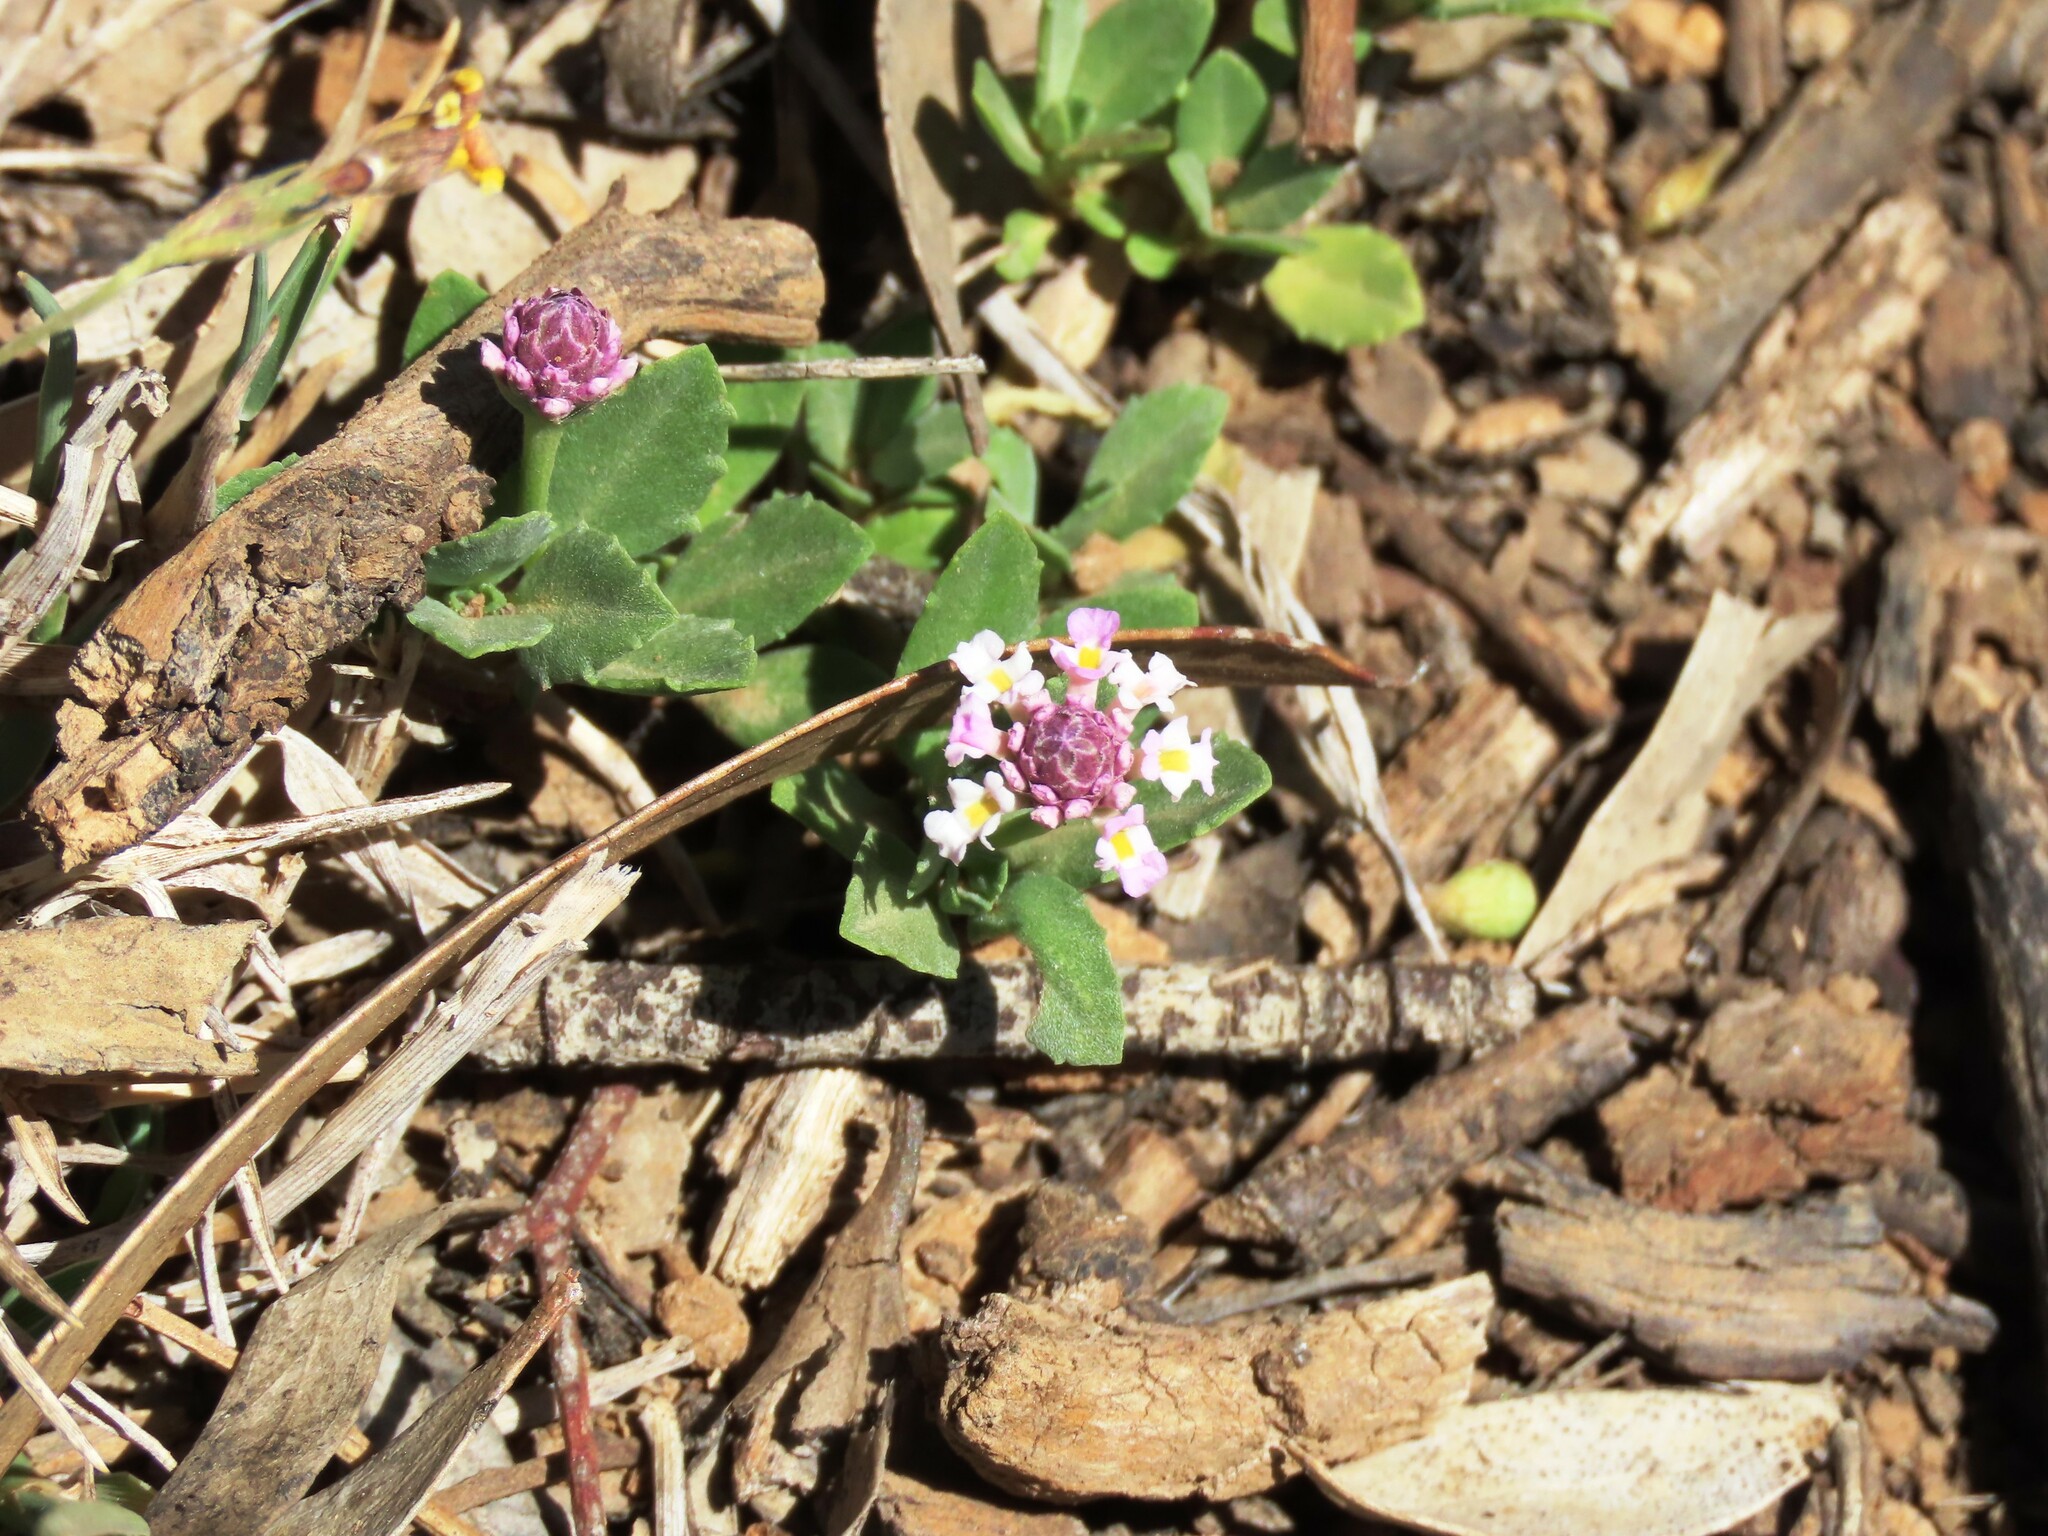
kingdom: Plantae
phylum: Tracheophyta
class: Magnoliopsida
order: Lamiales
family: Verbenaceae
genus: Phyla
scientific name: Phyla nodiflora
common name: Frogfruit
